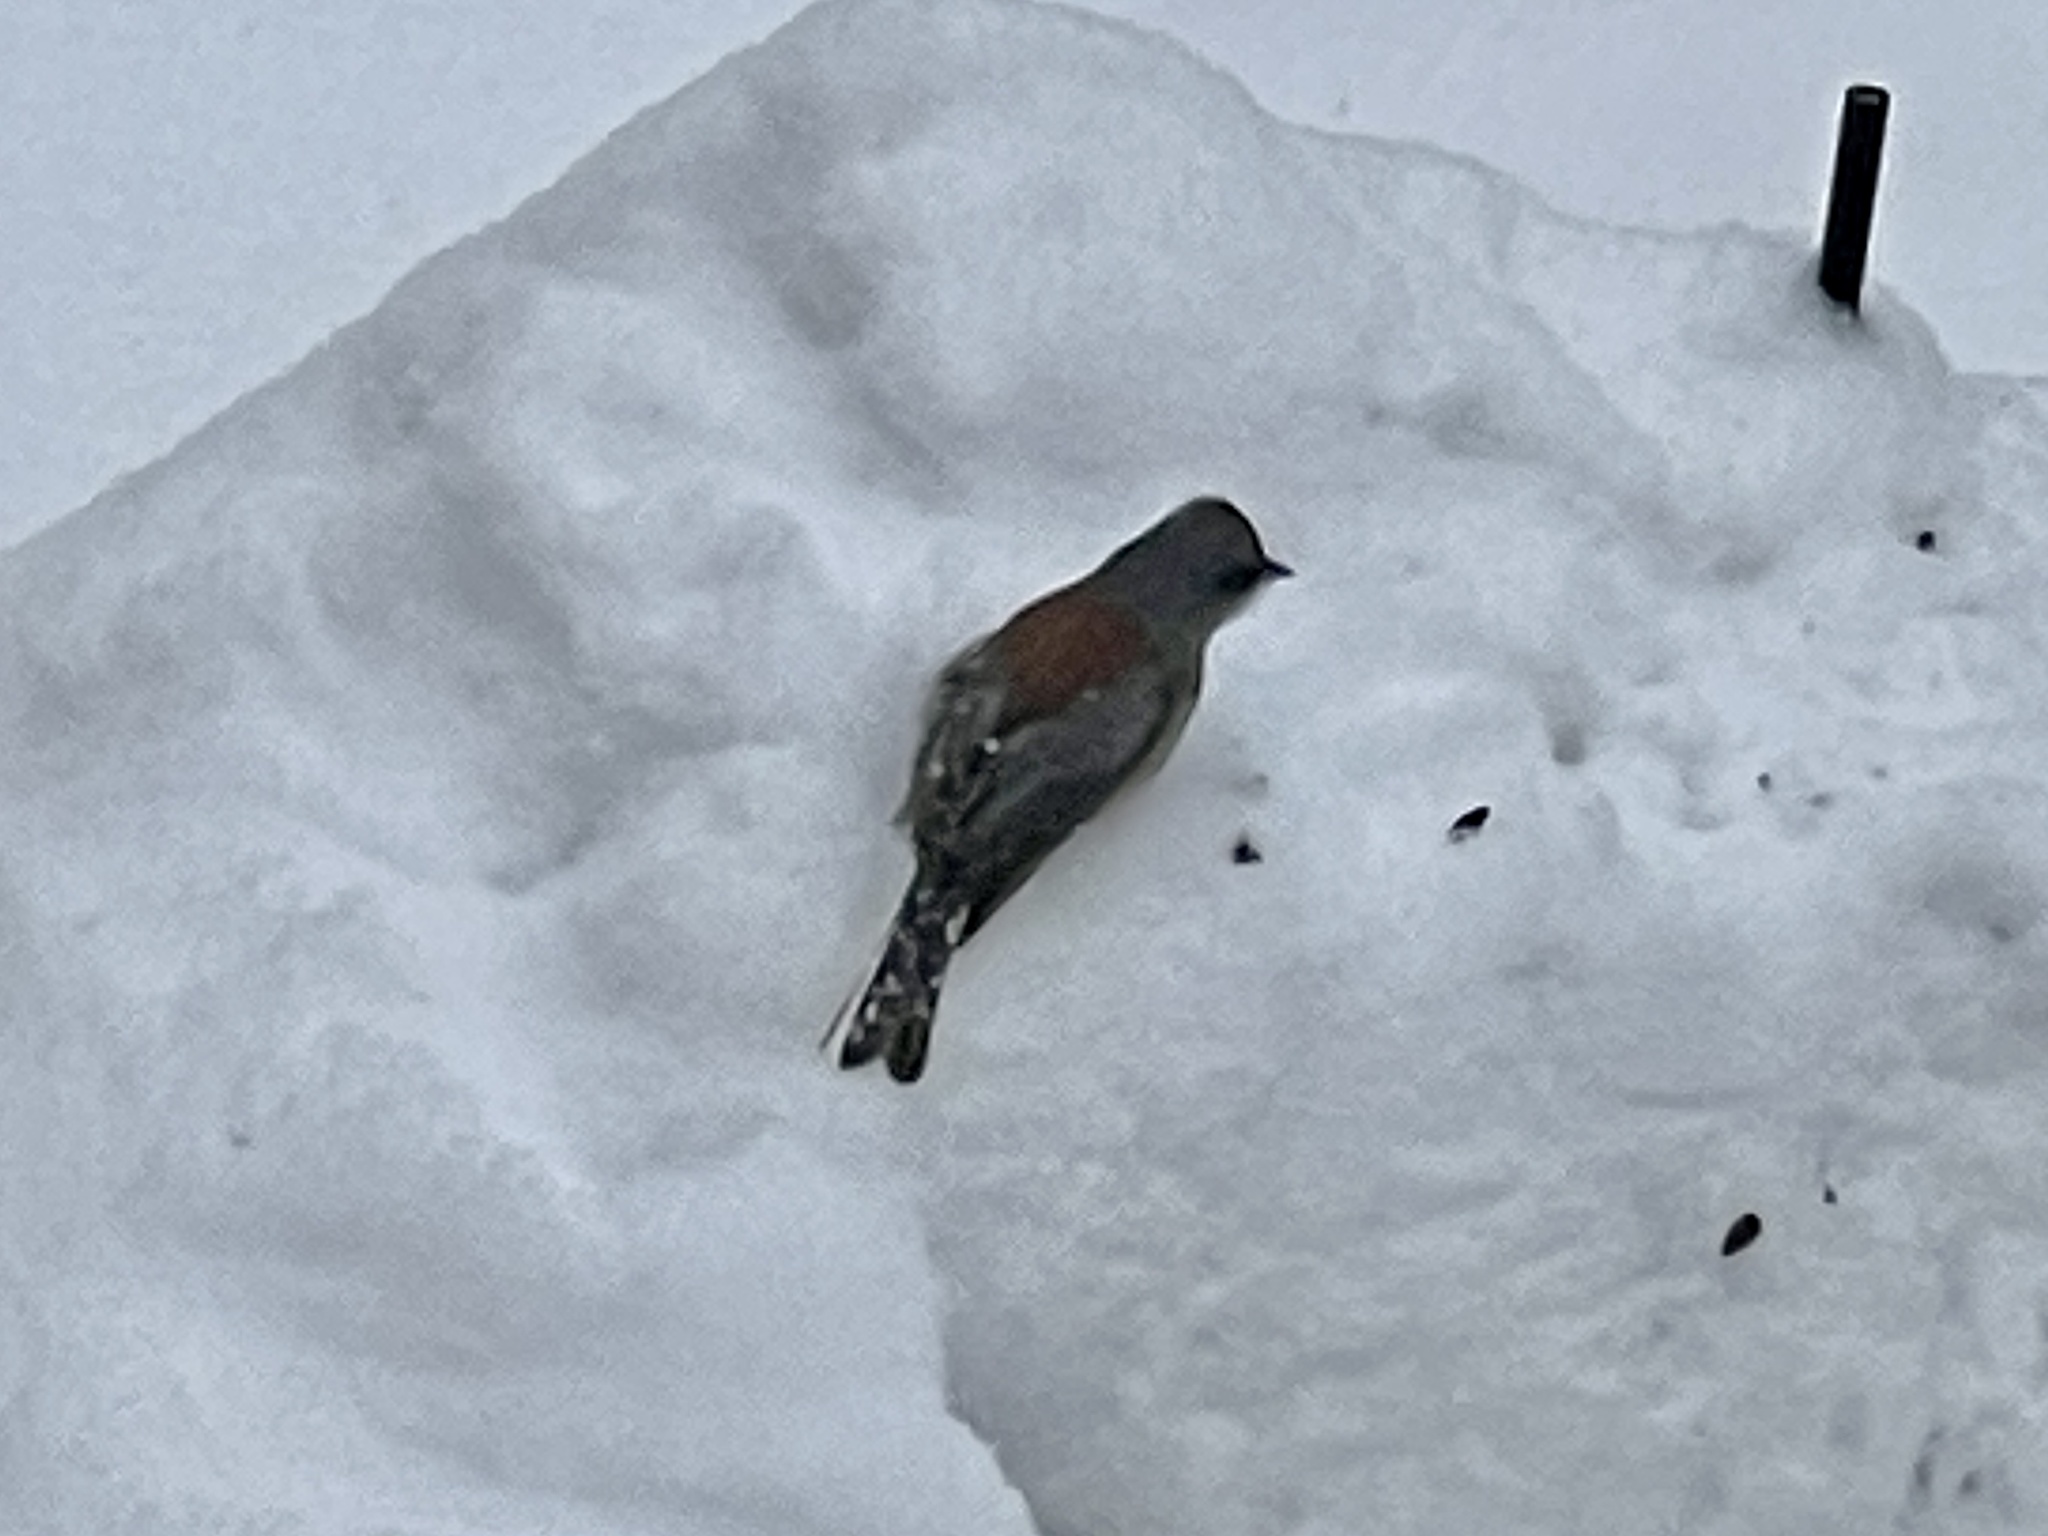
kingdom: Animalia
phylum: Chordata
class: Aves
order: Passeriformes
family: Passerellidae
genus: Junco
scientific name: Junco hyemalis
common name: Dark-eyed junco
